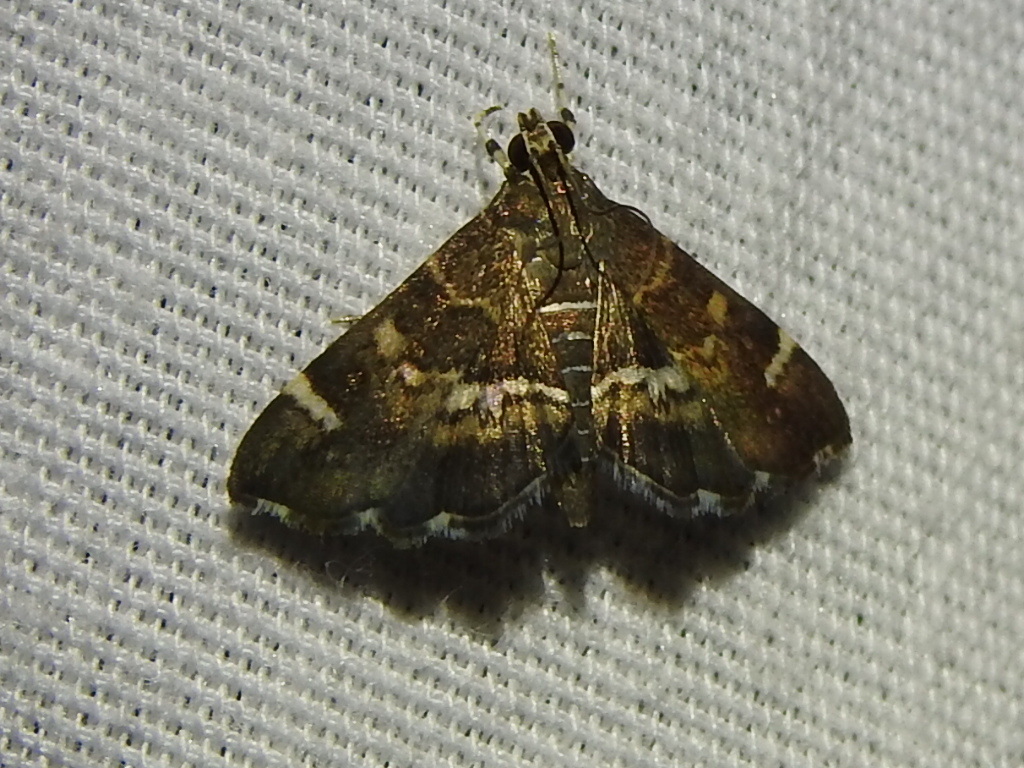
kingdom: Animalia
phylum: Arthropoda
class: Insecta
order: Lepidoptera
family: Crambidae
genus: Hymenia
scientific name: Hymenia perspectalis
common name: Spotted beet webworm
